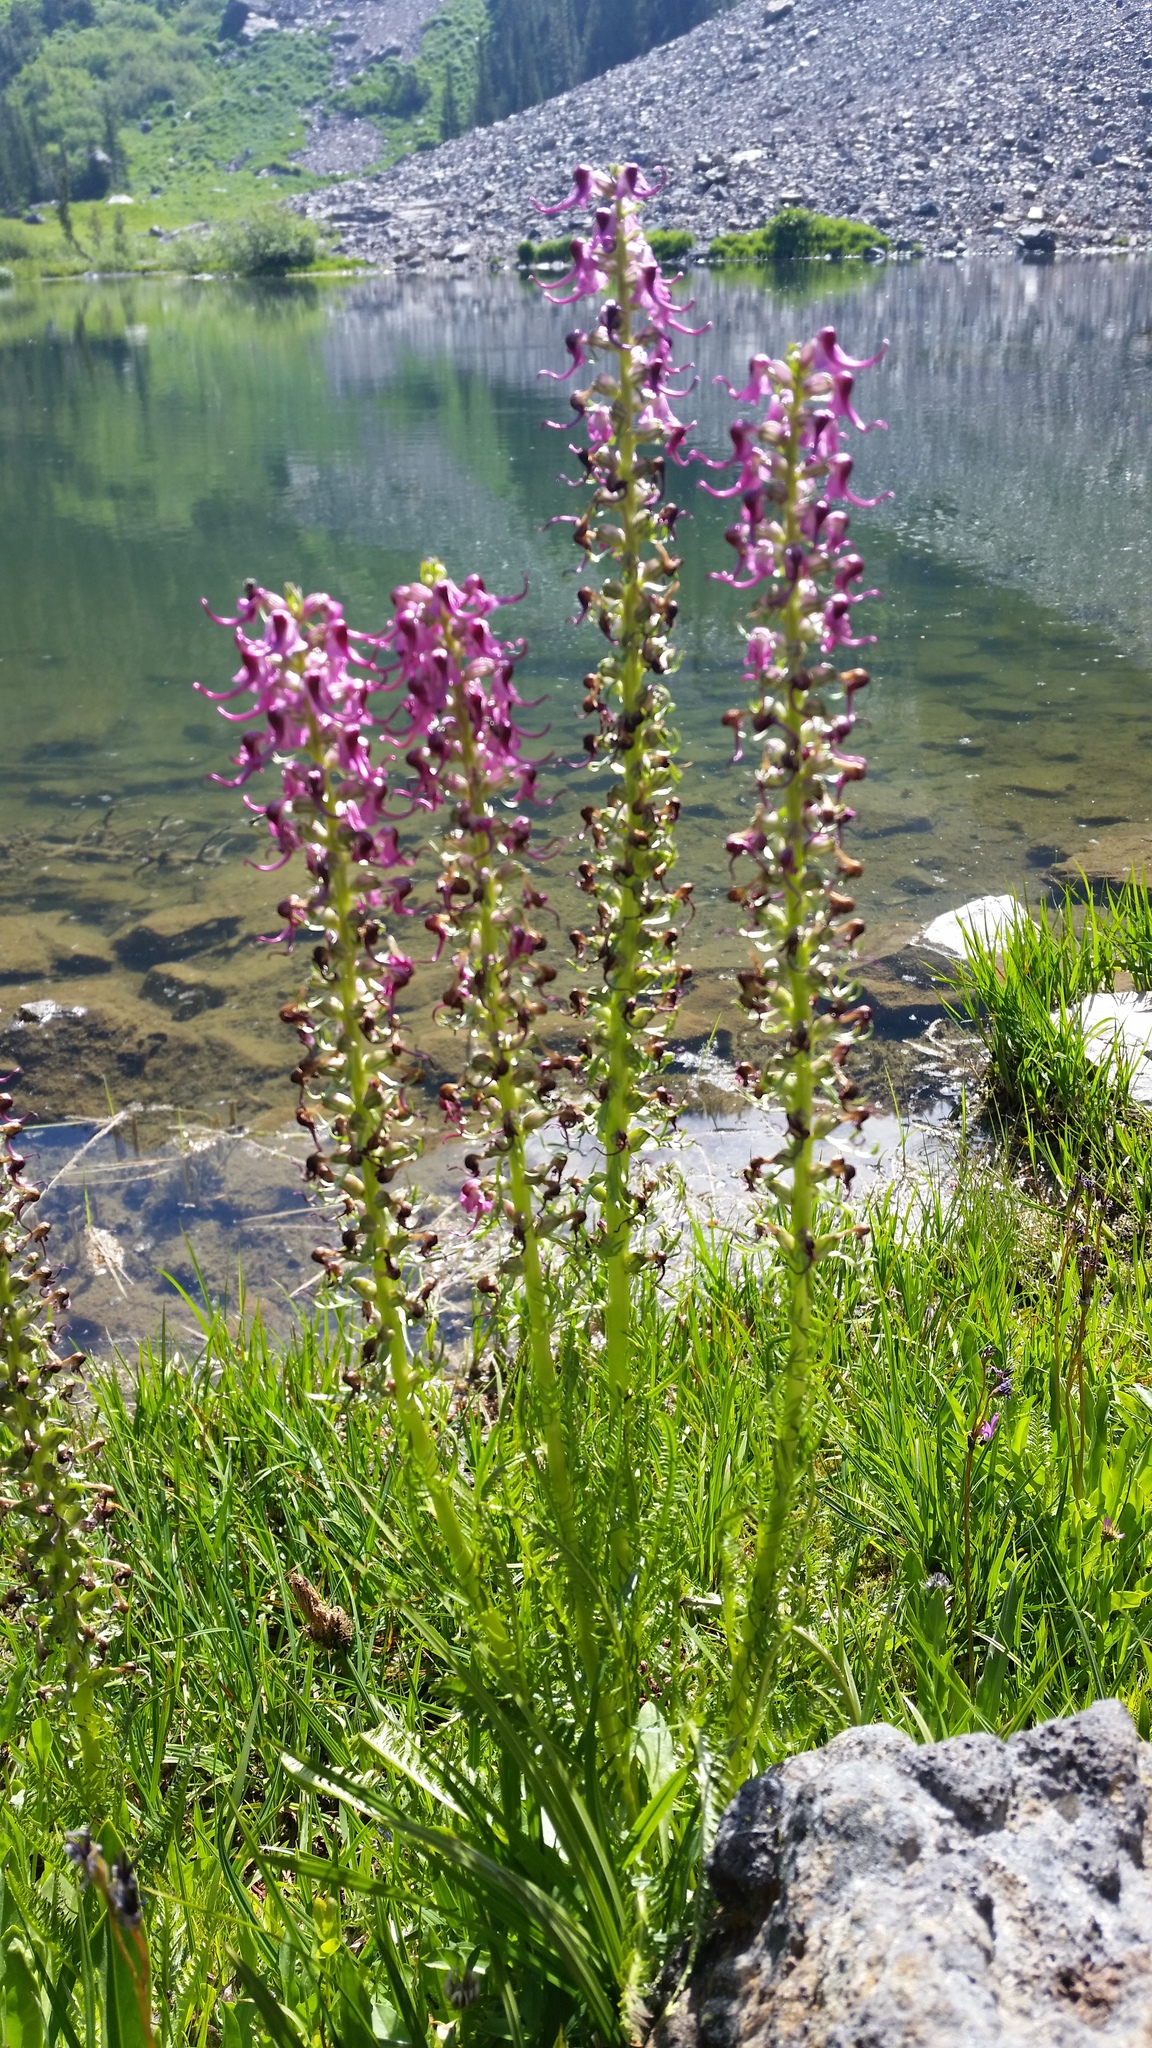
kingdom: Plantae
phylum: Tracheophyta
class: Magnoliopsida
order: Lamiales
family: Orobanchaceae
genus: Pedicularis
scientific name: Pedicularis groenlandica
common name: Elephant's-head
